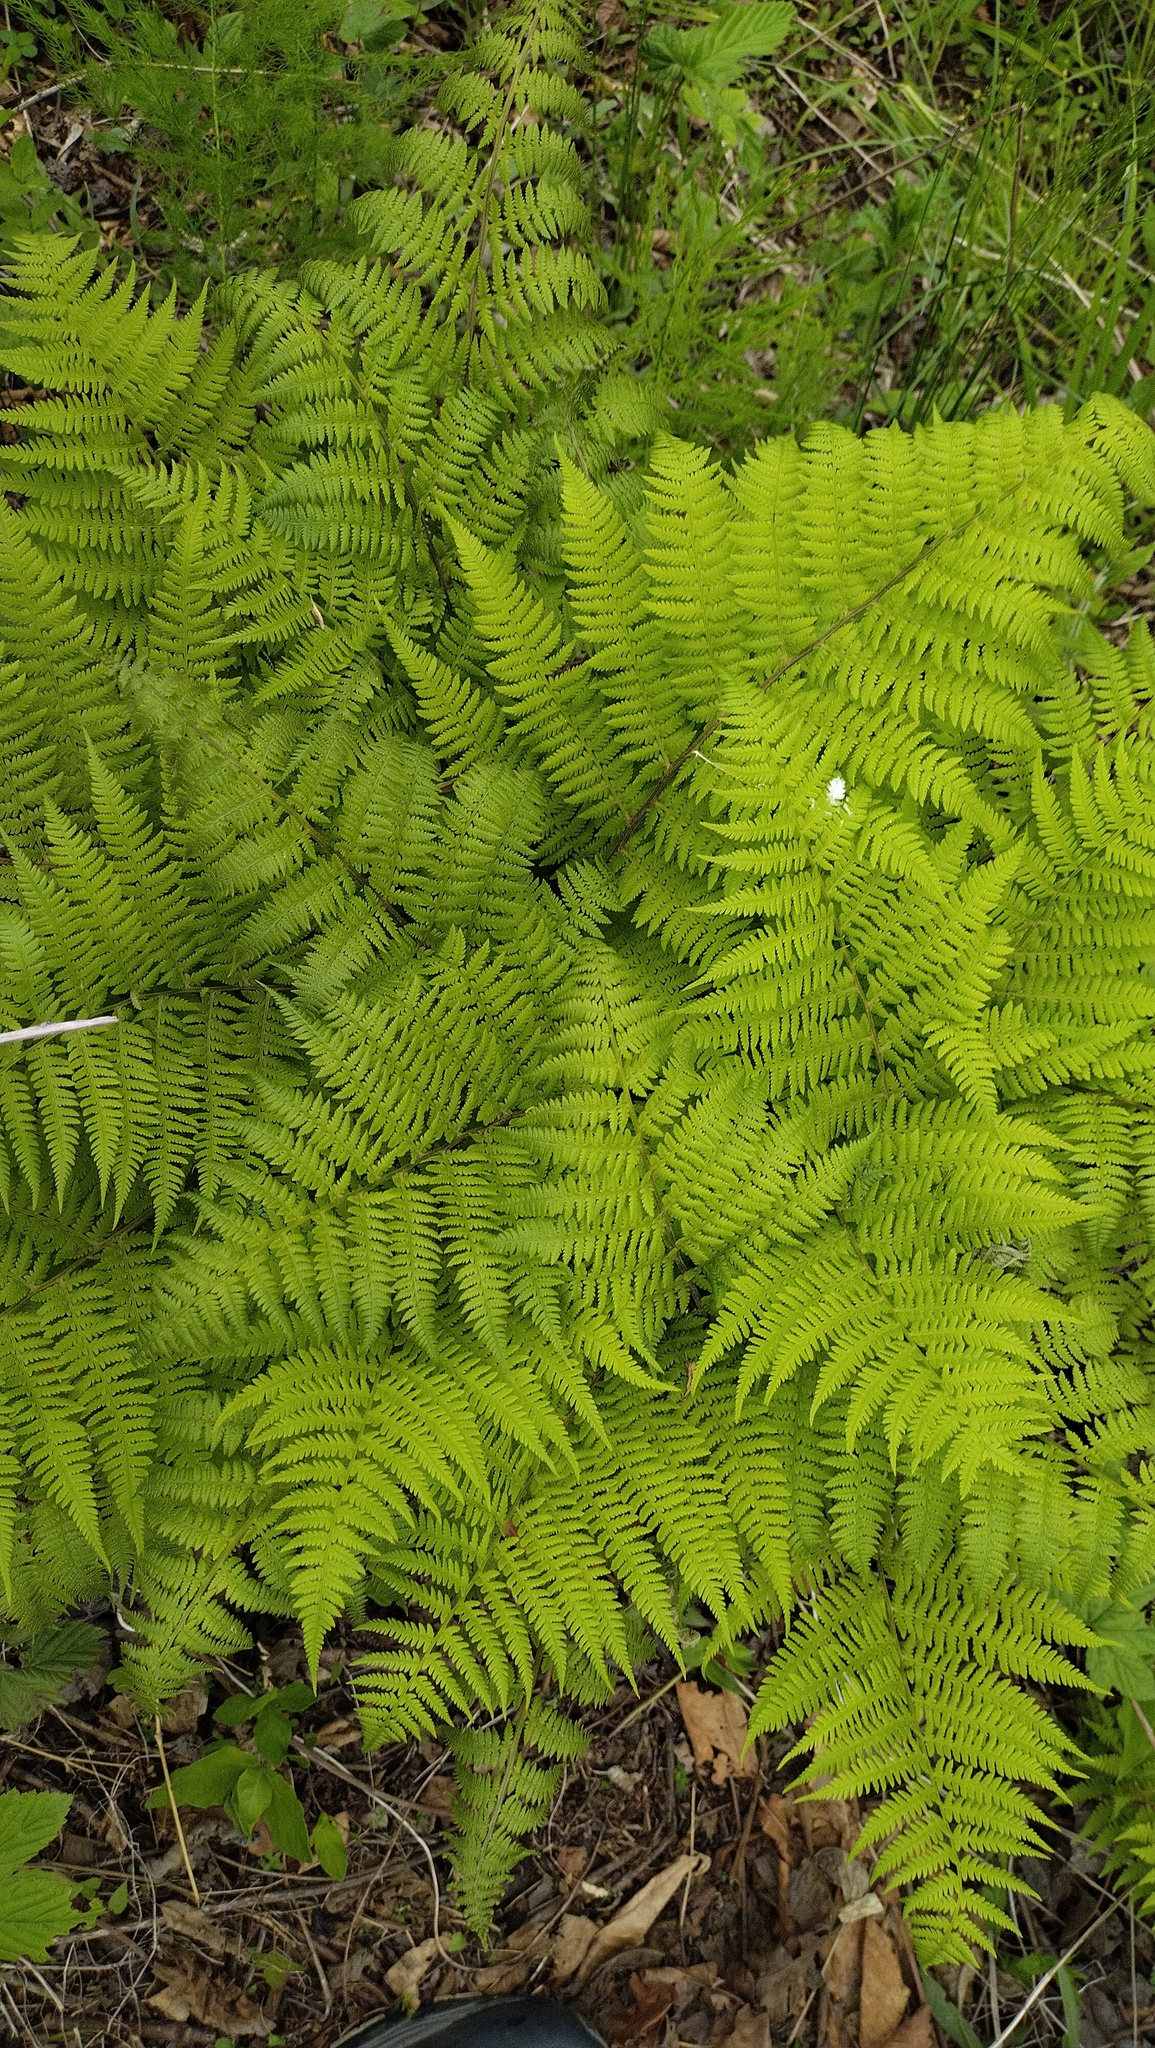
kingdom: Plantae
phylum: Tracheophyta
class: Polypodiopsida
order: Polypodiales
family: Athyriaceae
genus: Athyrium
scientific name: Athyrium filix-femina
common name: Lady fern
